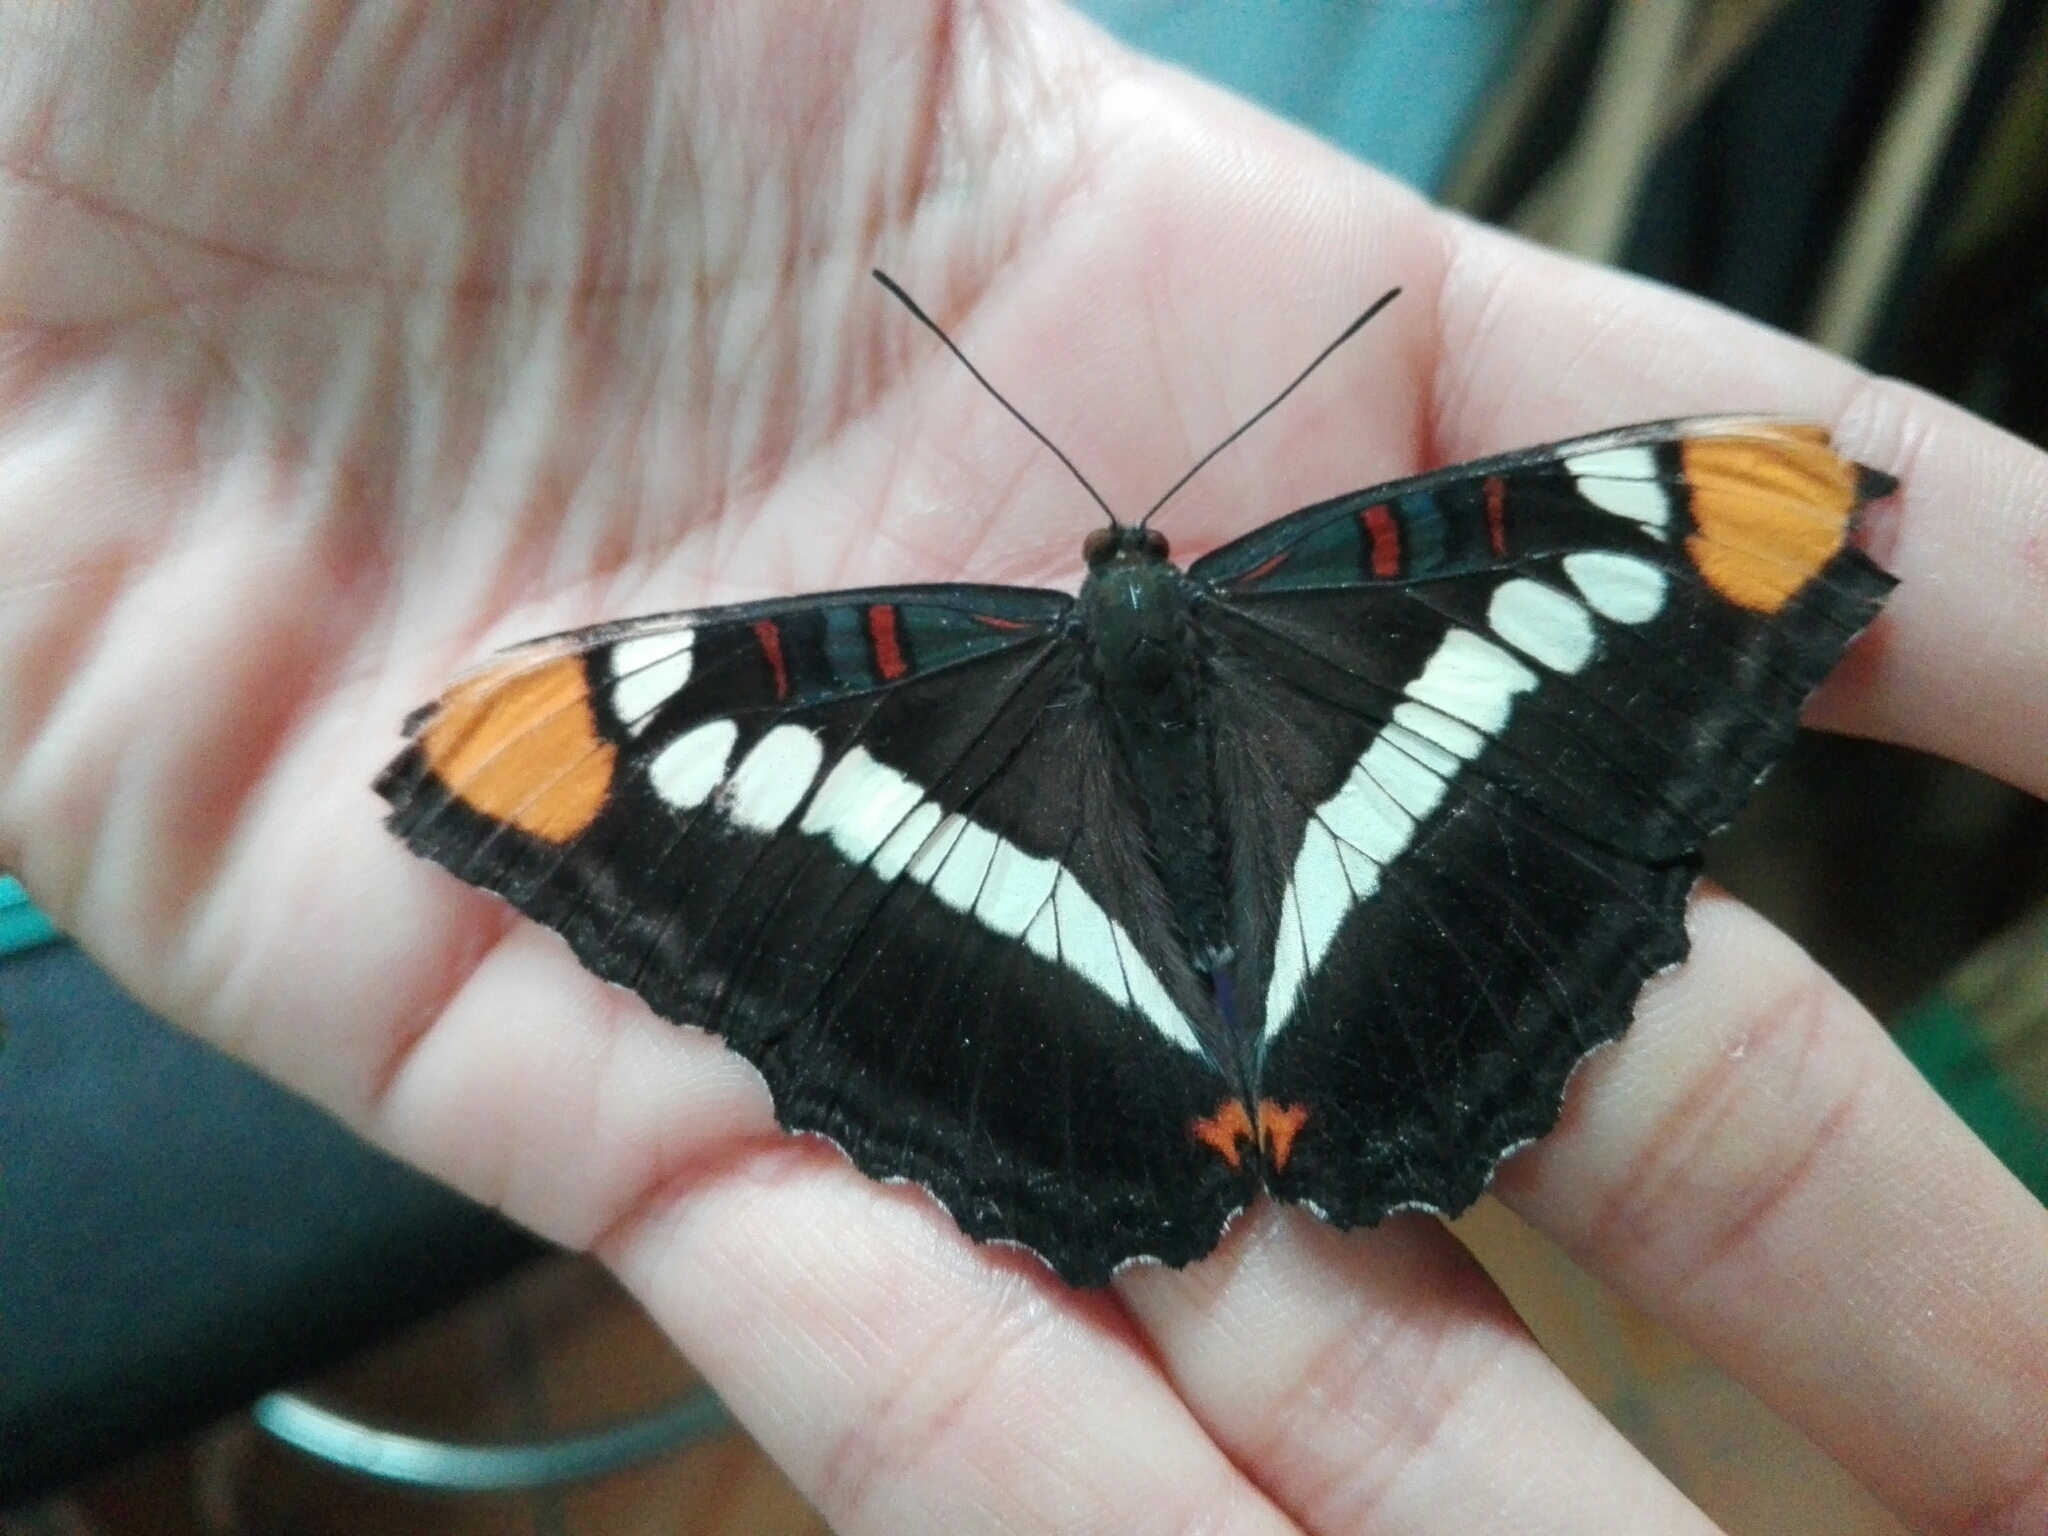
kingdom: Animalia
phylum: Arthropoda
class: Insecta
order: Lepidoptera
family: Nymphalidae
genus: Limenitis
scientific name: Limenitis bredowii
